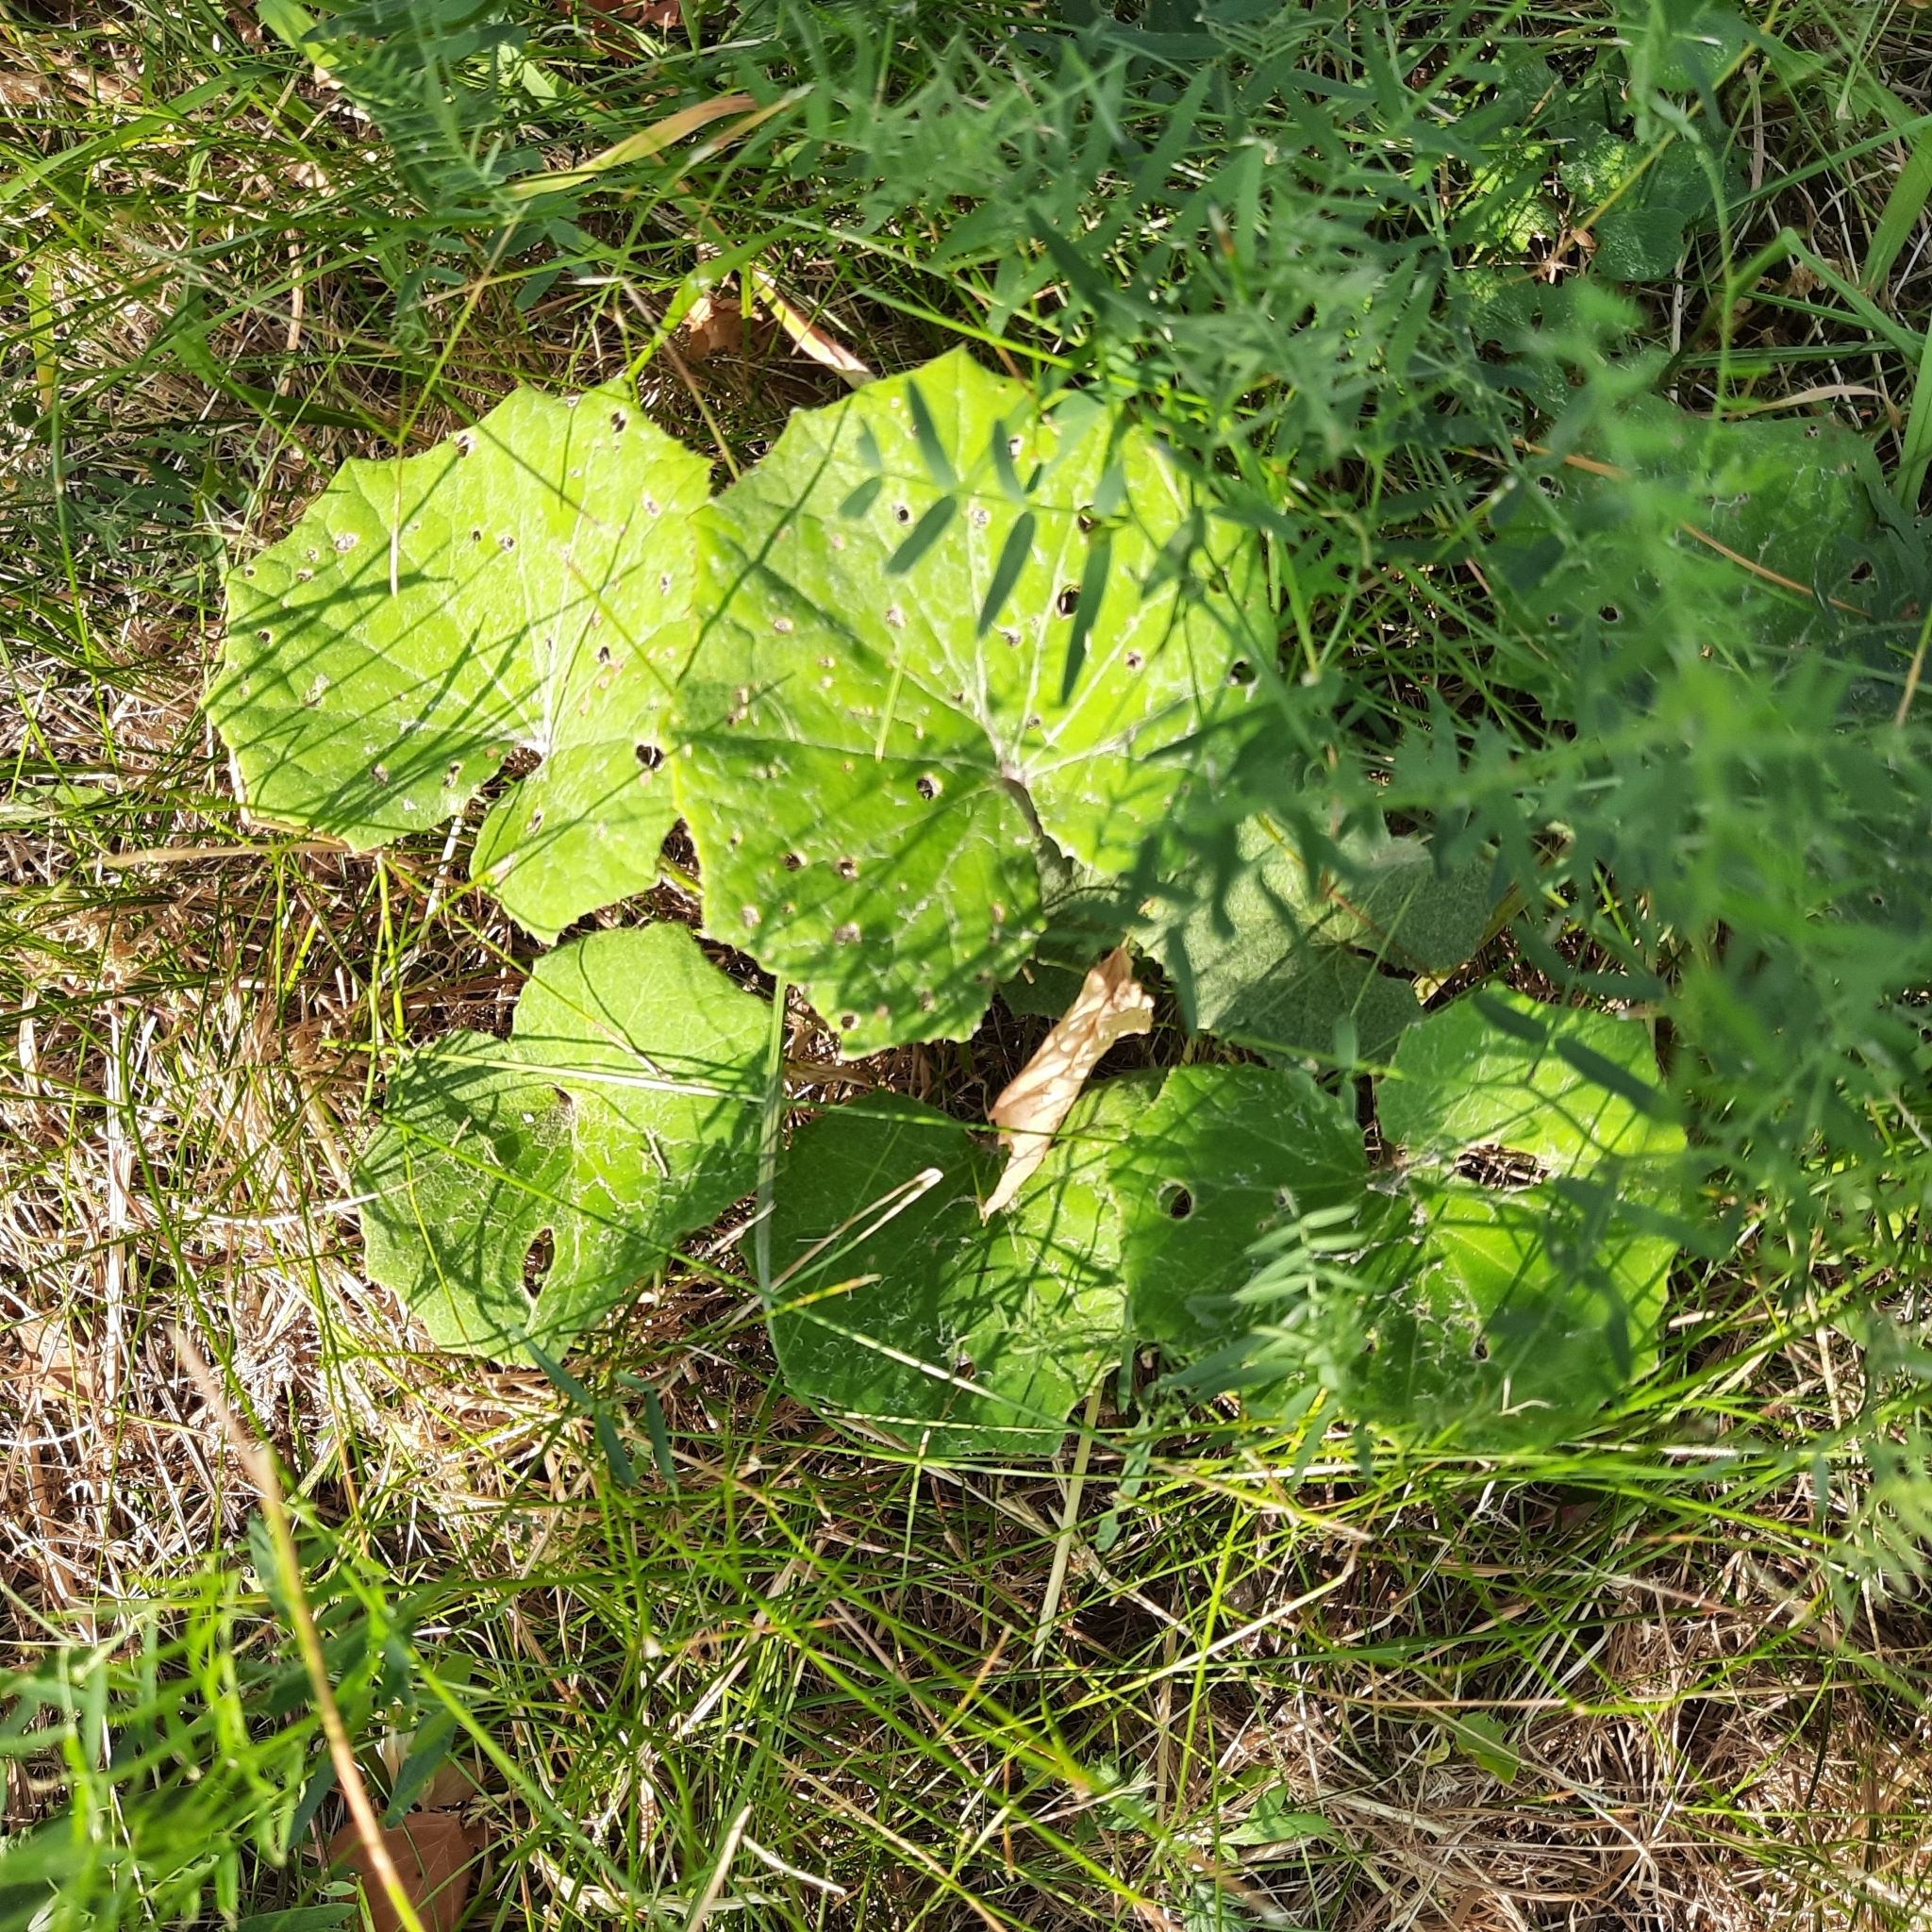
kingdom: Plantae
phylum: Tracheophyta
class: Magnoliopsida
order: Asterales
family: Asteraceae
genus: Tussilago
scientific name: Tussilago farfara
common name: Coltsfoot
